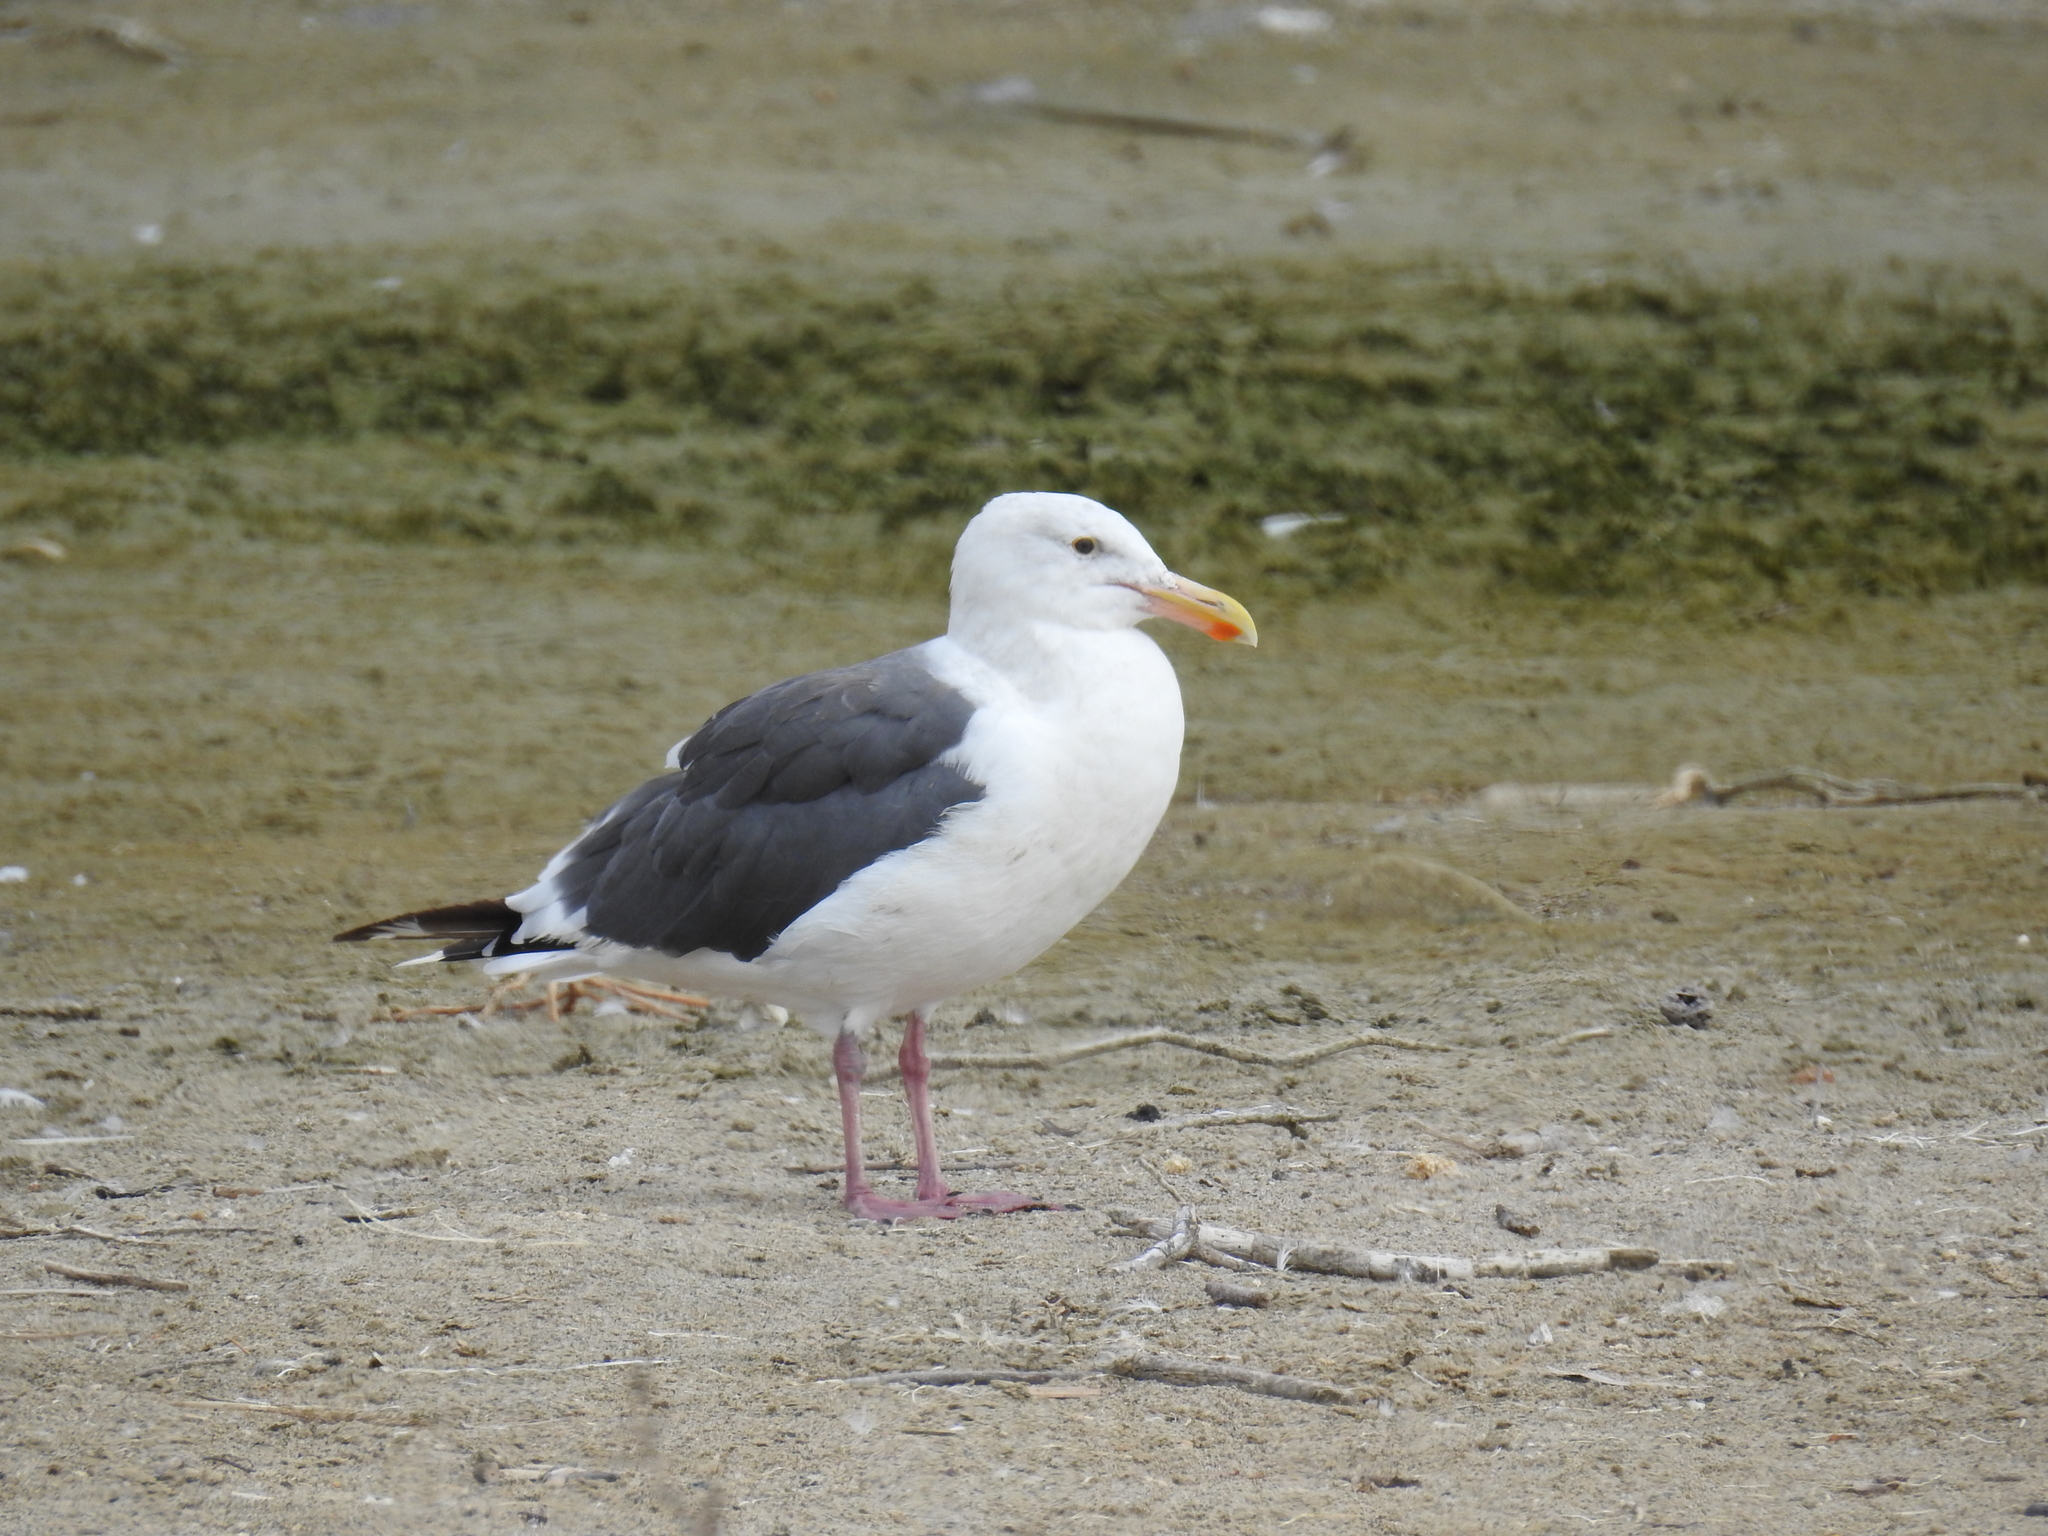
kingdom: Animalia
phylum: Chordata
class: Aves
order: Charadriiformes
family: Laridae
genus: Larus
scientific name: Larus occidentalis
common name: Western gull
